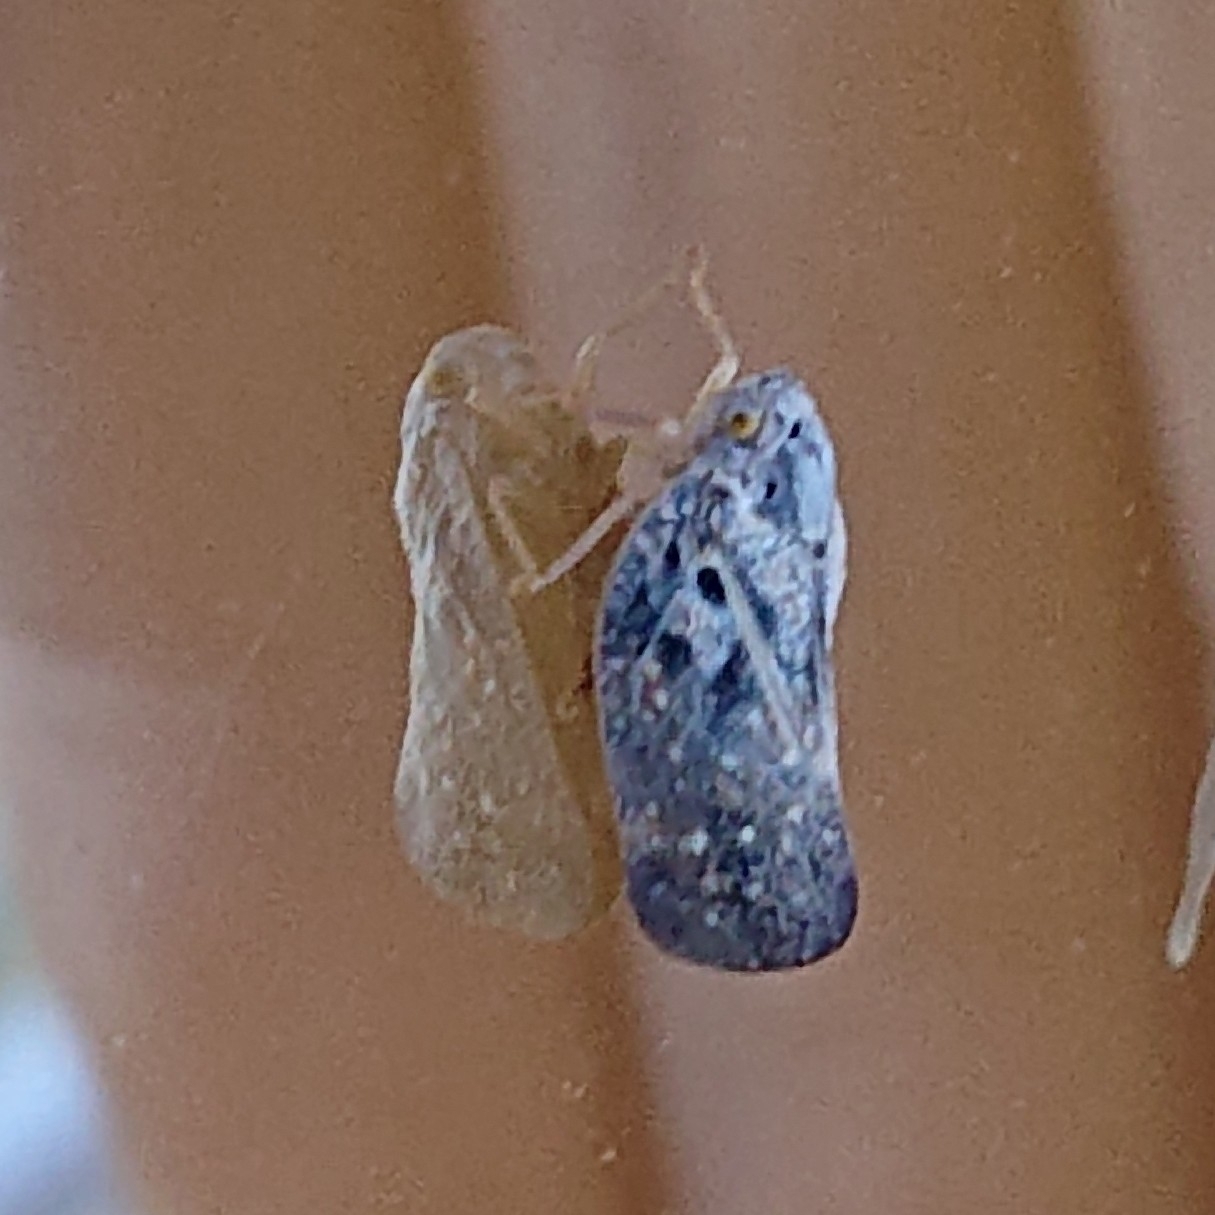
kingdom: Animalia
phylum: Arthropoda
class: Insecta
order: Hemiptera
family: Flatidae
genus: Metcalfa
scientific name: Metcalfa pruinosa
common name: Citrus flatid planthopper
